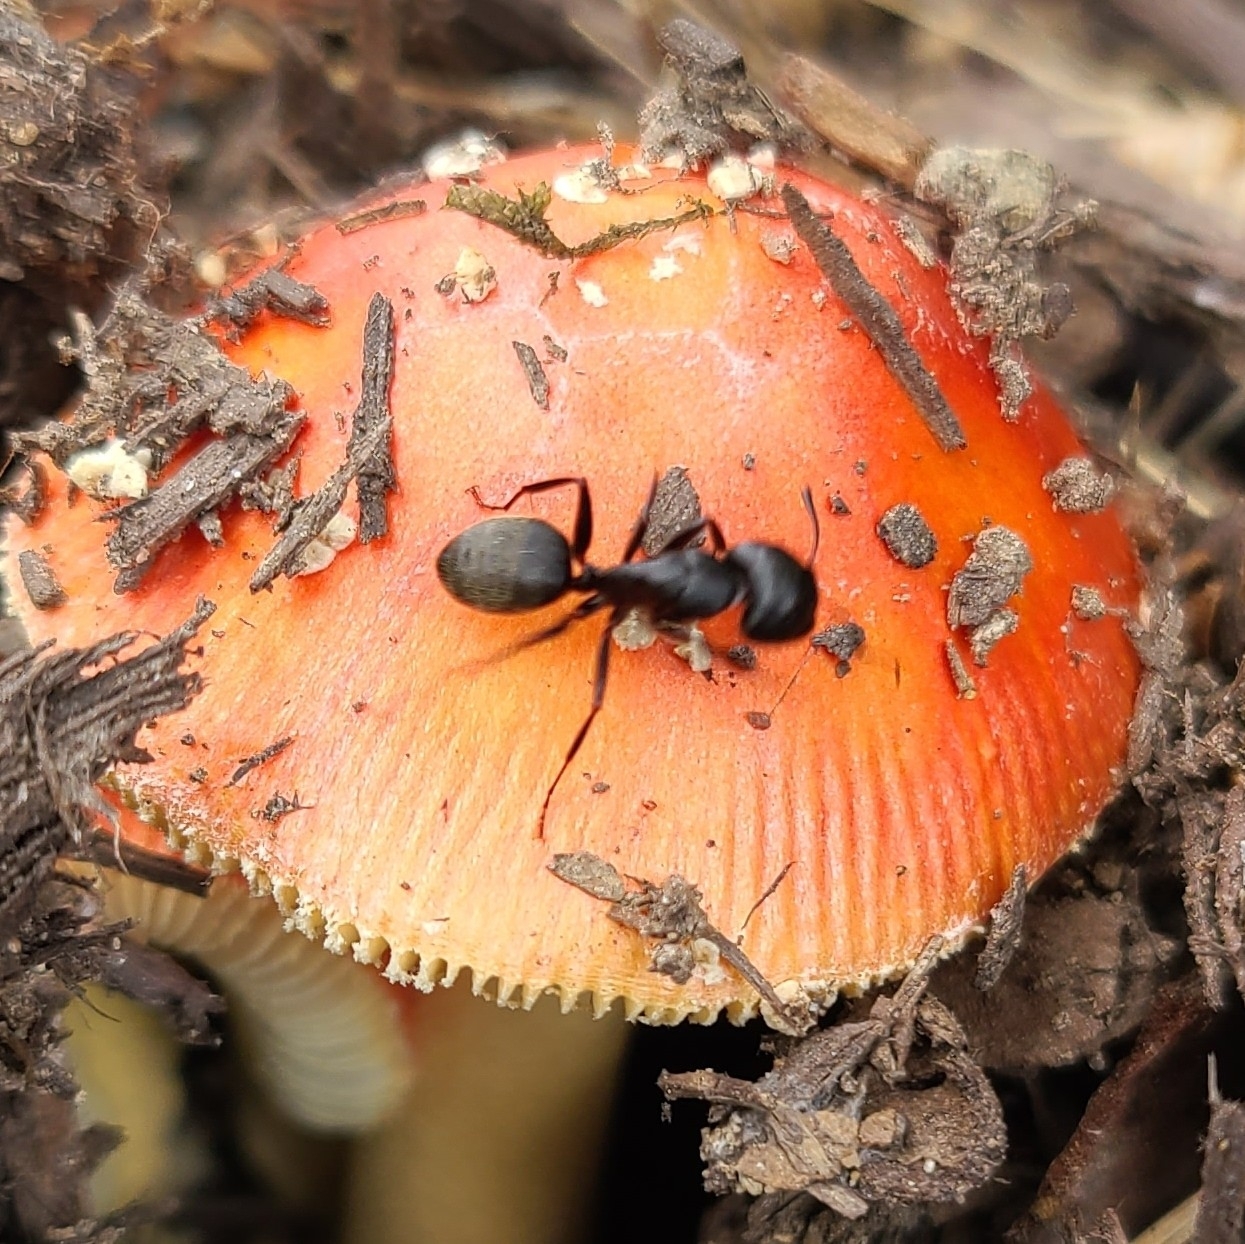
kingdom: Animalia
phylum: Arthropoda
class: Insecta
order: Hymenoptera
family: Formicidae
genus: Camponotus
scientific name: Camponotus pennsylvanicus
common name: Black carpenter ant
